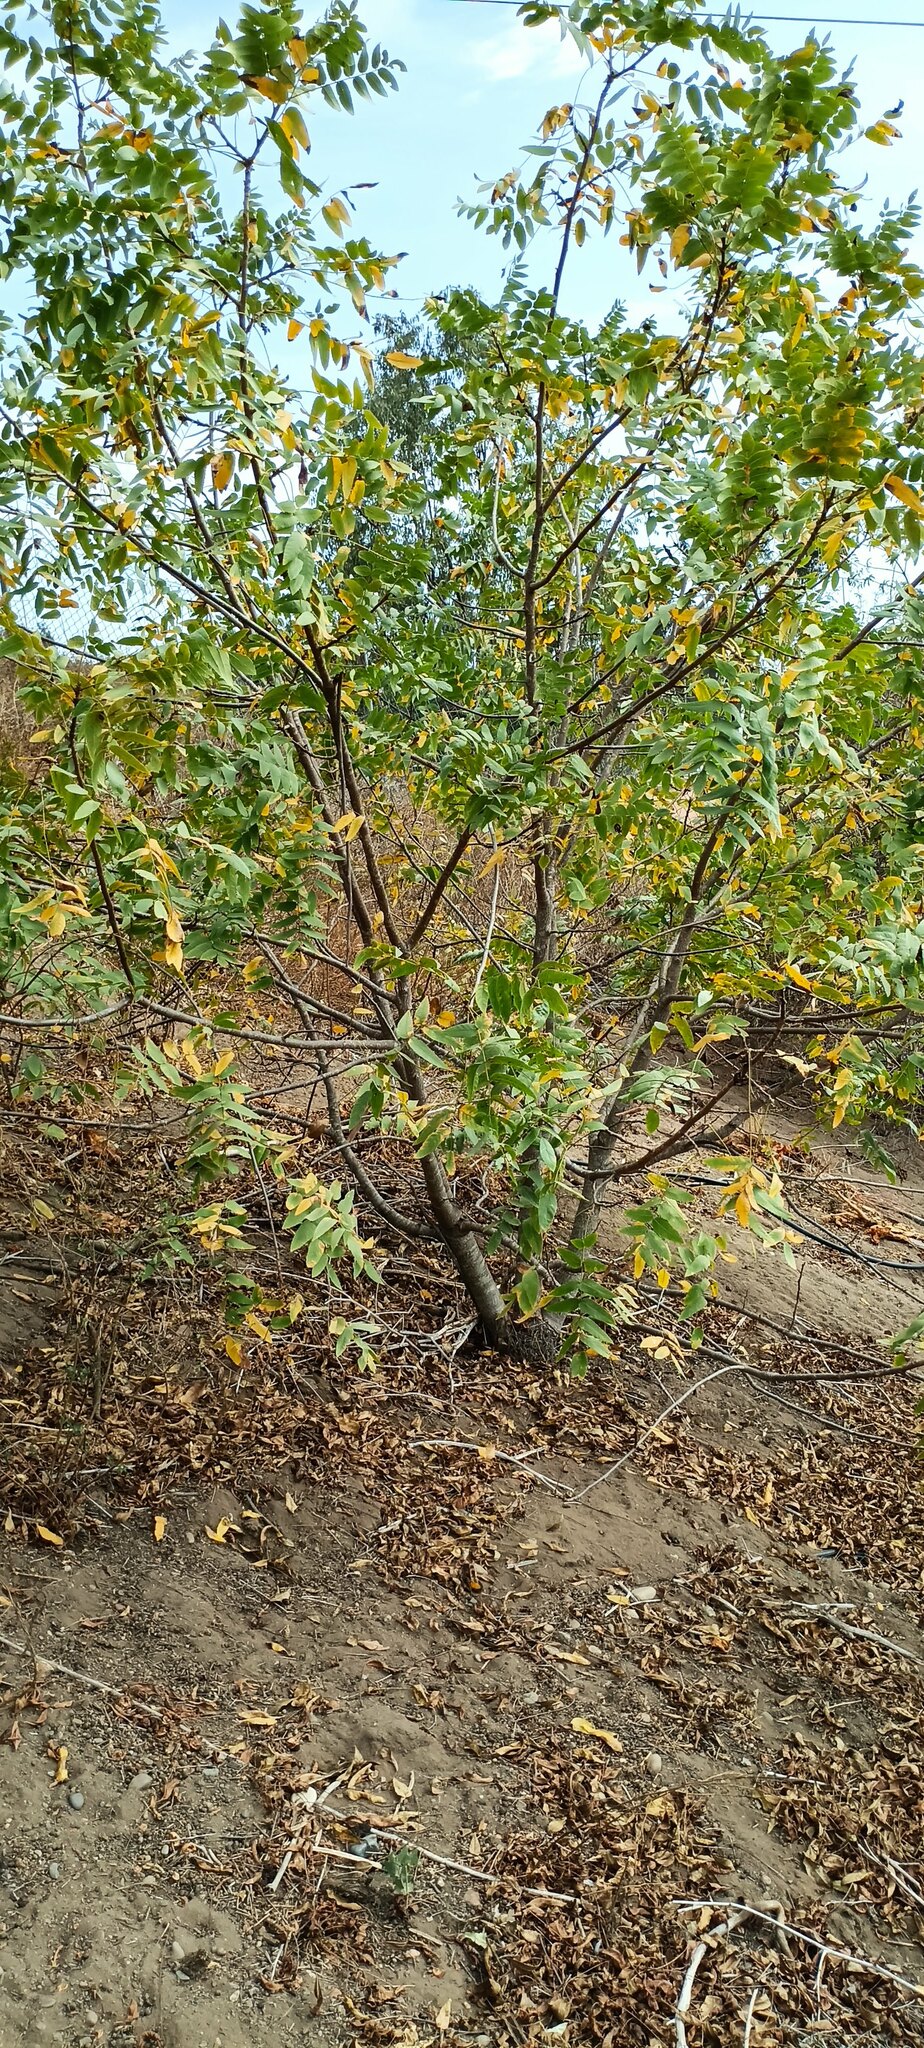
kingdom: Plantae
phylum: Tracheophyta
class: Magnoliopsida
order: Fagales
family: Juglandaceae
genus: Juglans
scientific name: Juglans californica
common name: Southern california black walnut
